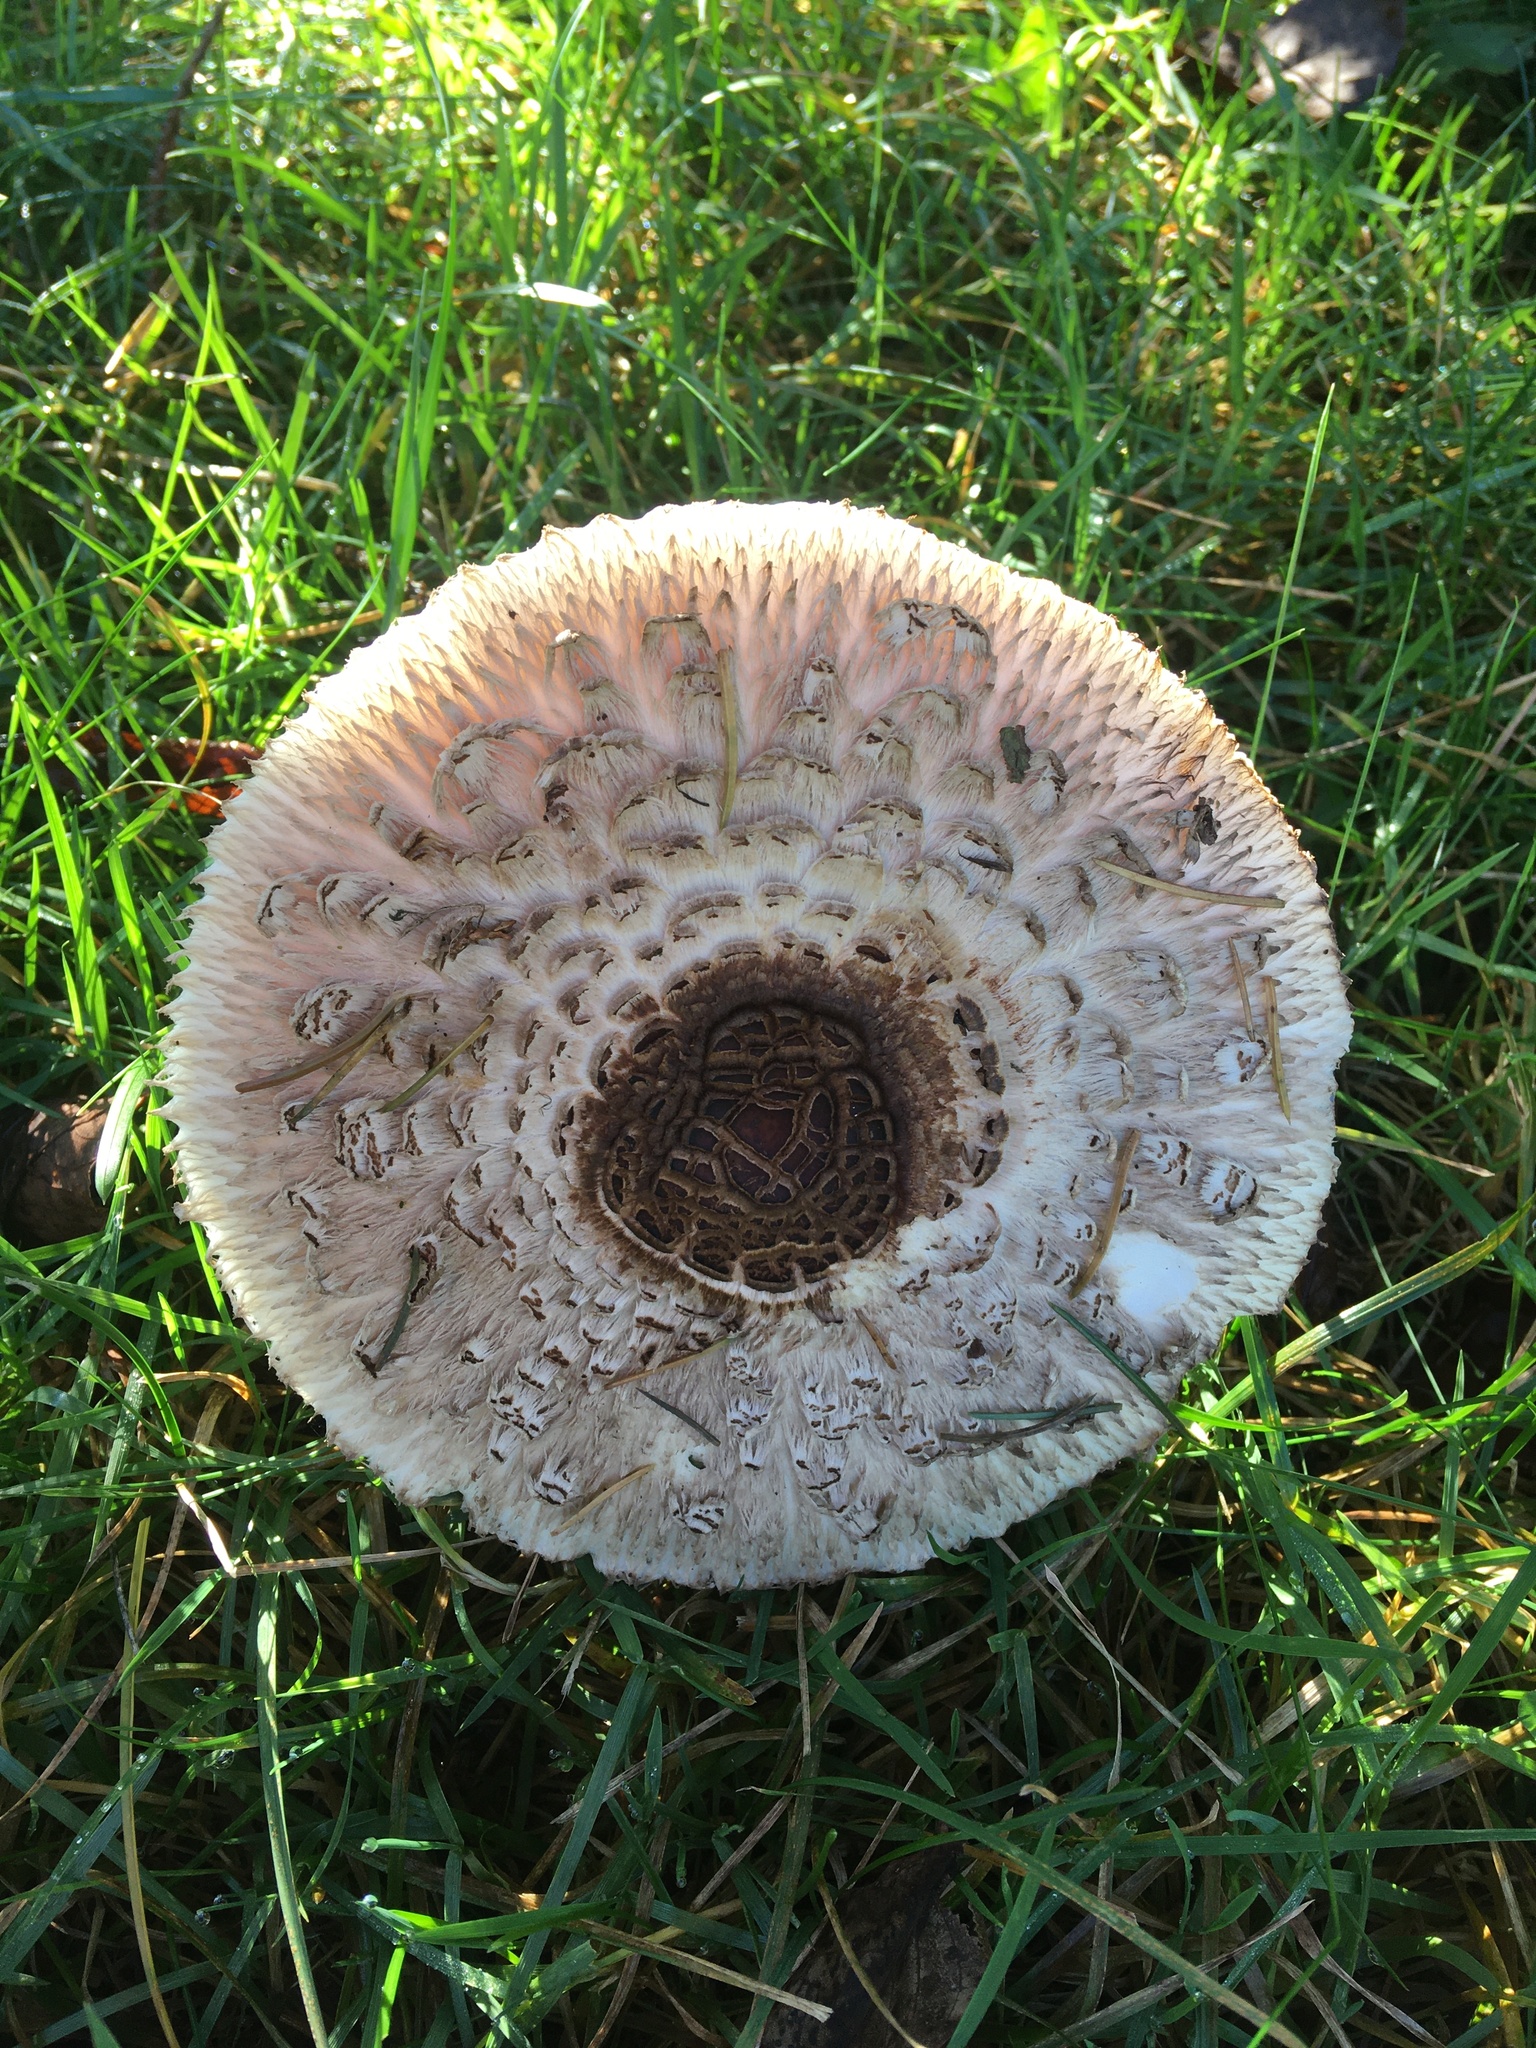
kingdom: Fungi
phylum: Basidiomycota
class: Agaricomycetes
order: Agaricales
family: Agaricaceae
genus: Chlorophyllum
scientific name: Chlorophyllum brunneum
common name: Brown parasol
